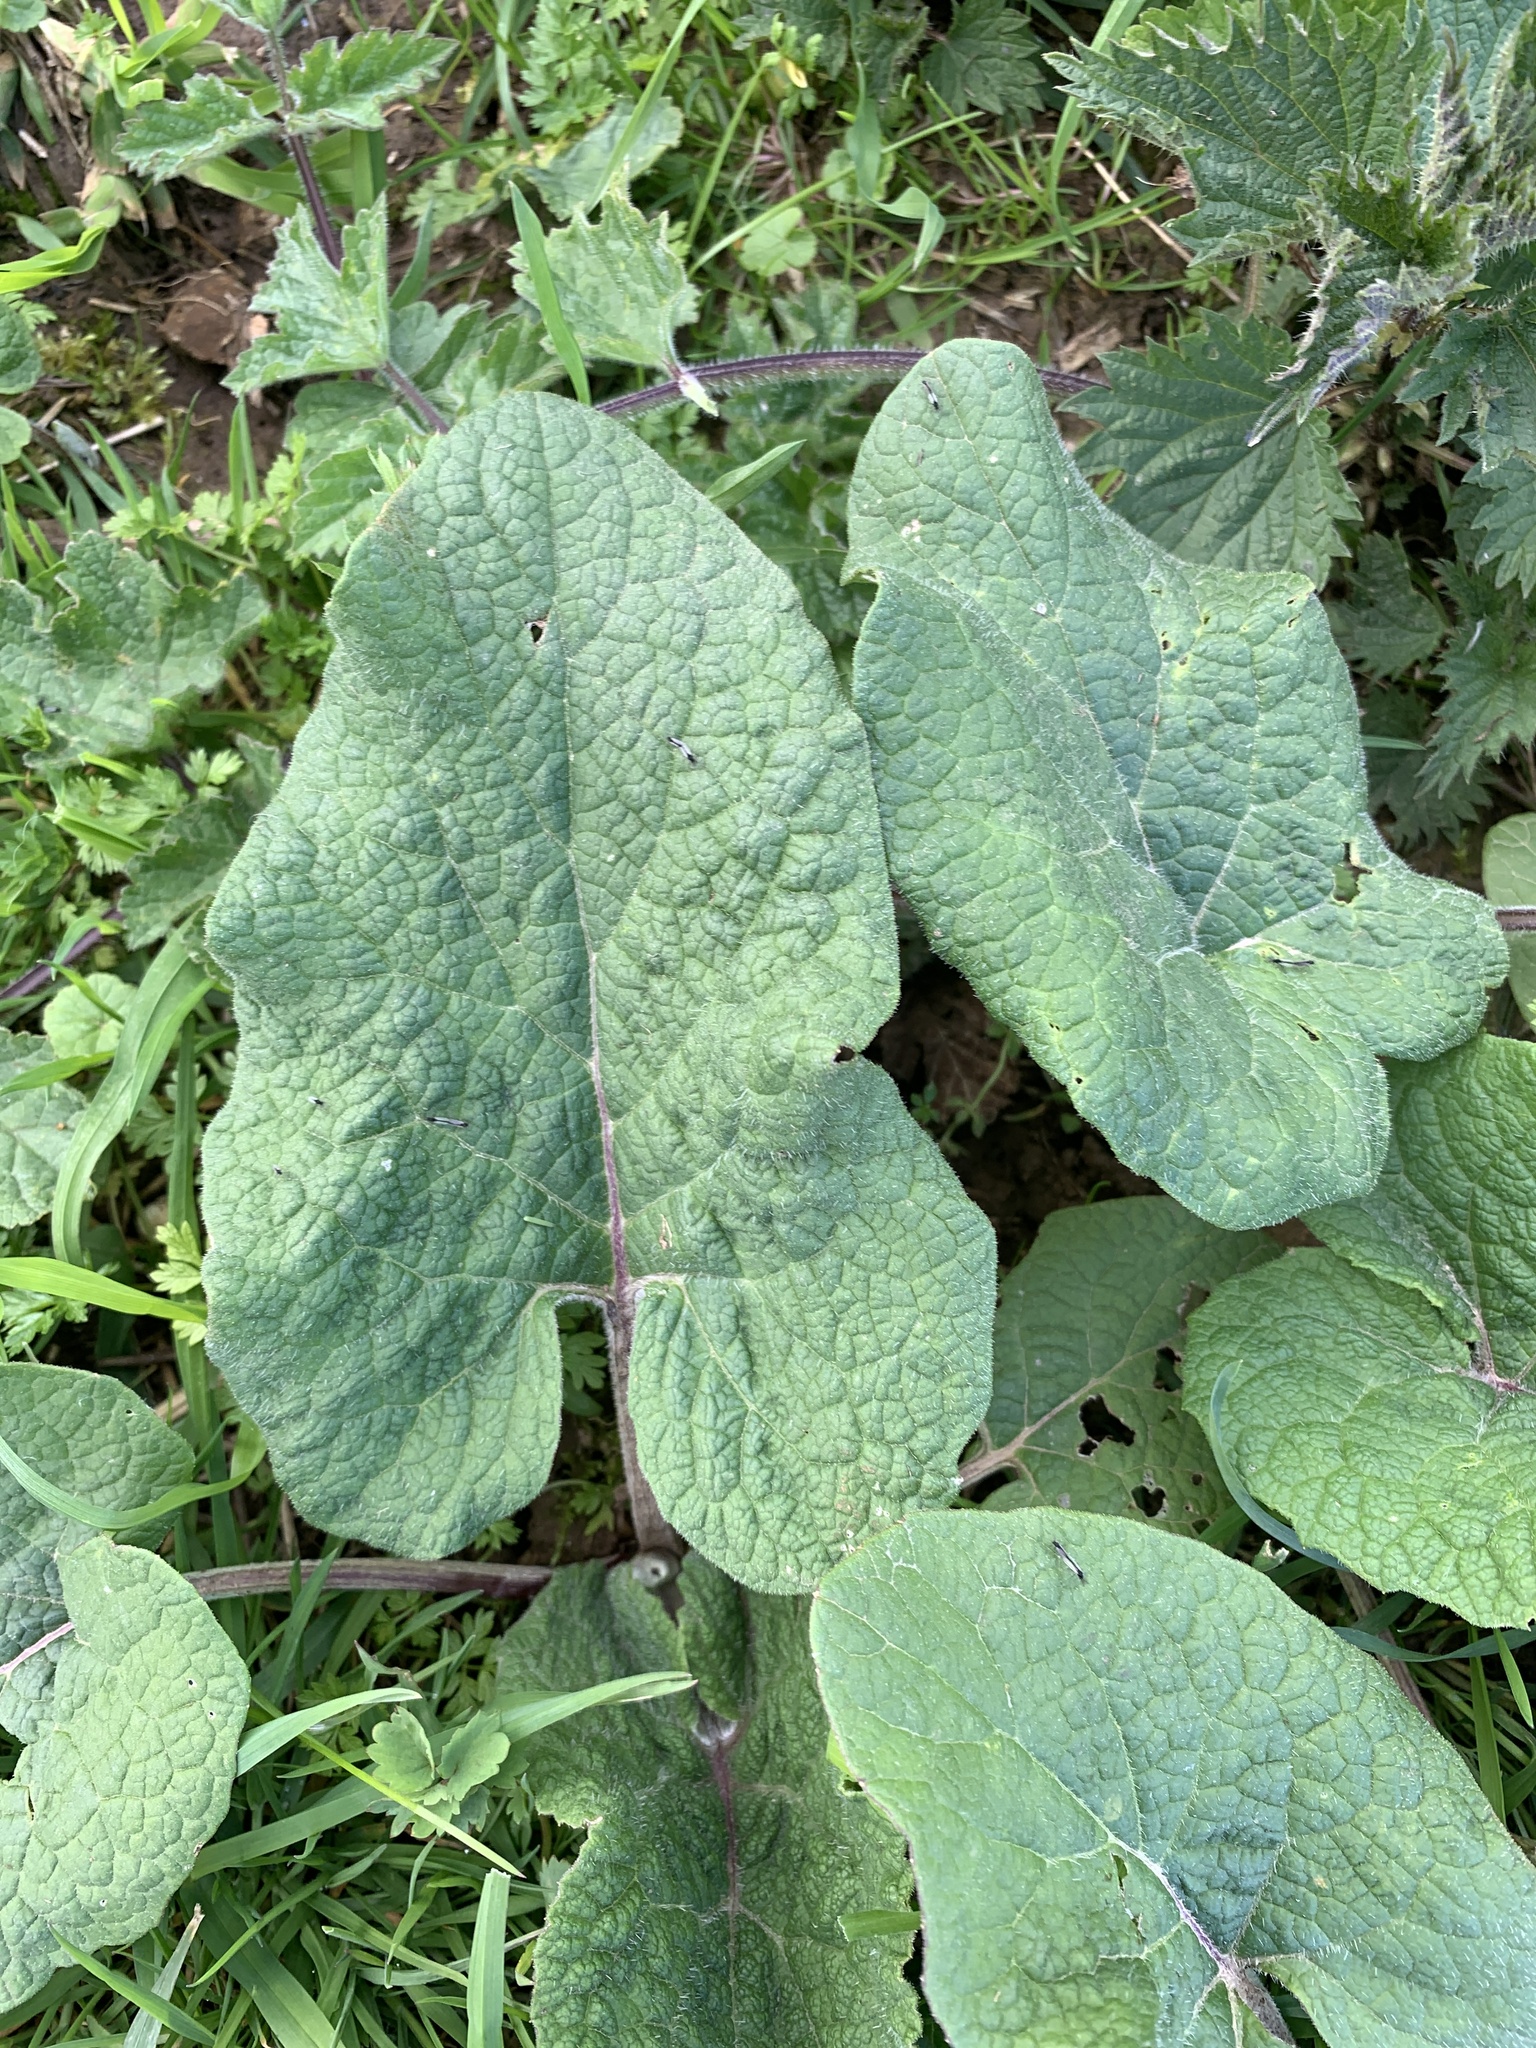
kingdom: Plantae
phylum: Tracheophyta
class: Magnoliopsida
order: Asterales
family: Asteraceae
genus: Arctium
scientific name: Arctium lappa
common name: Greater burdock
